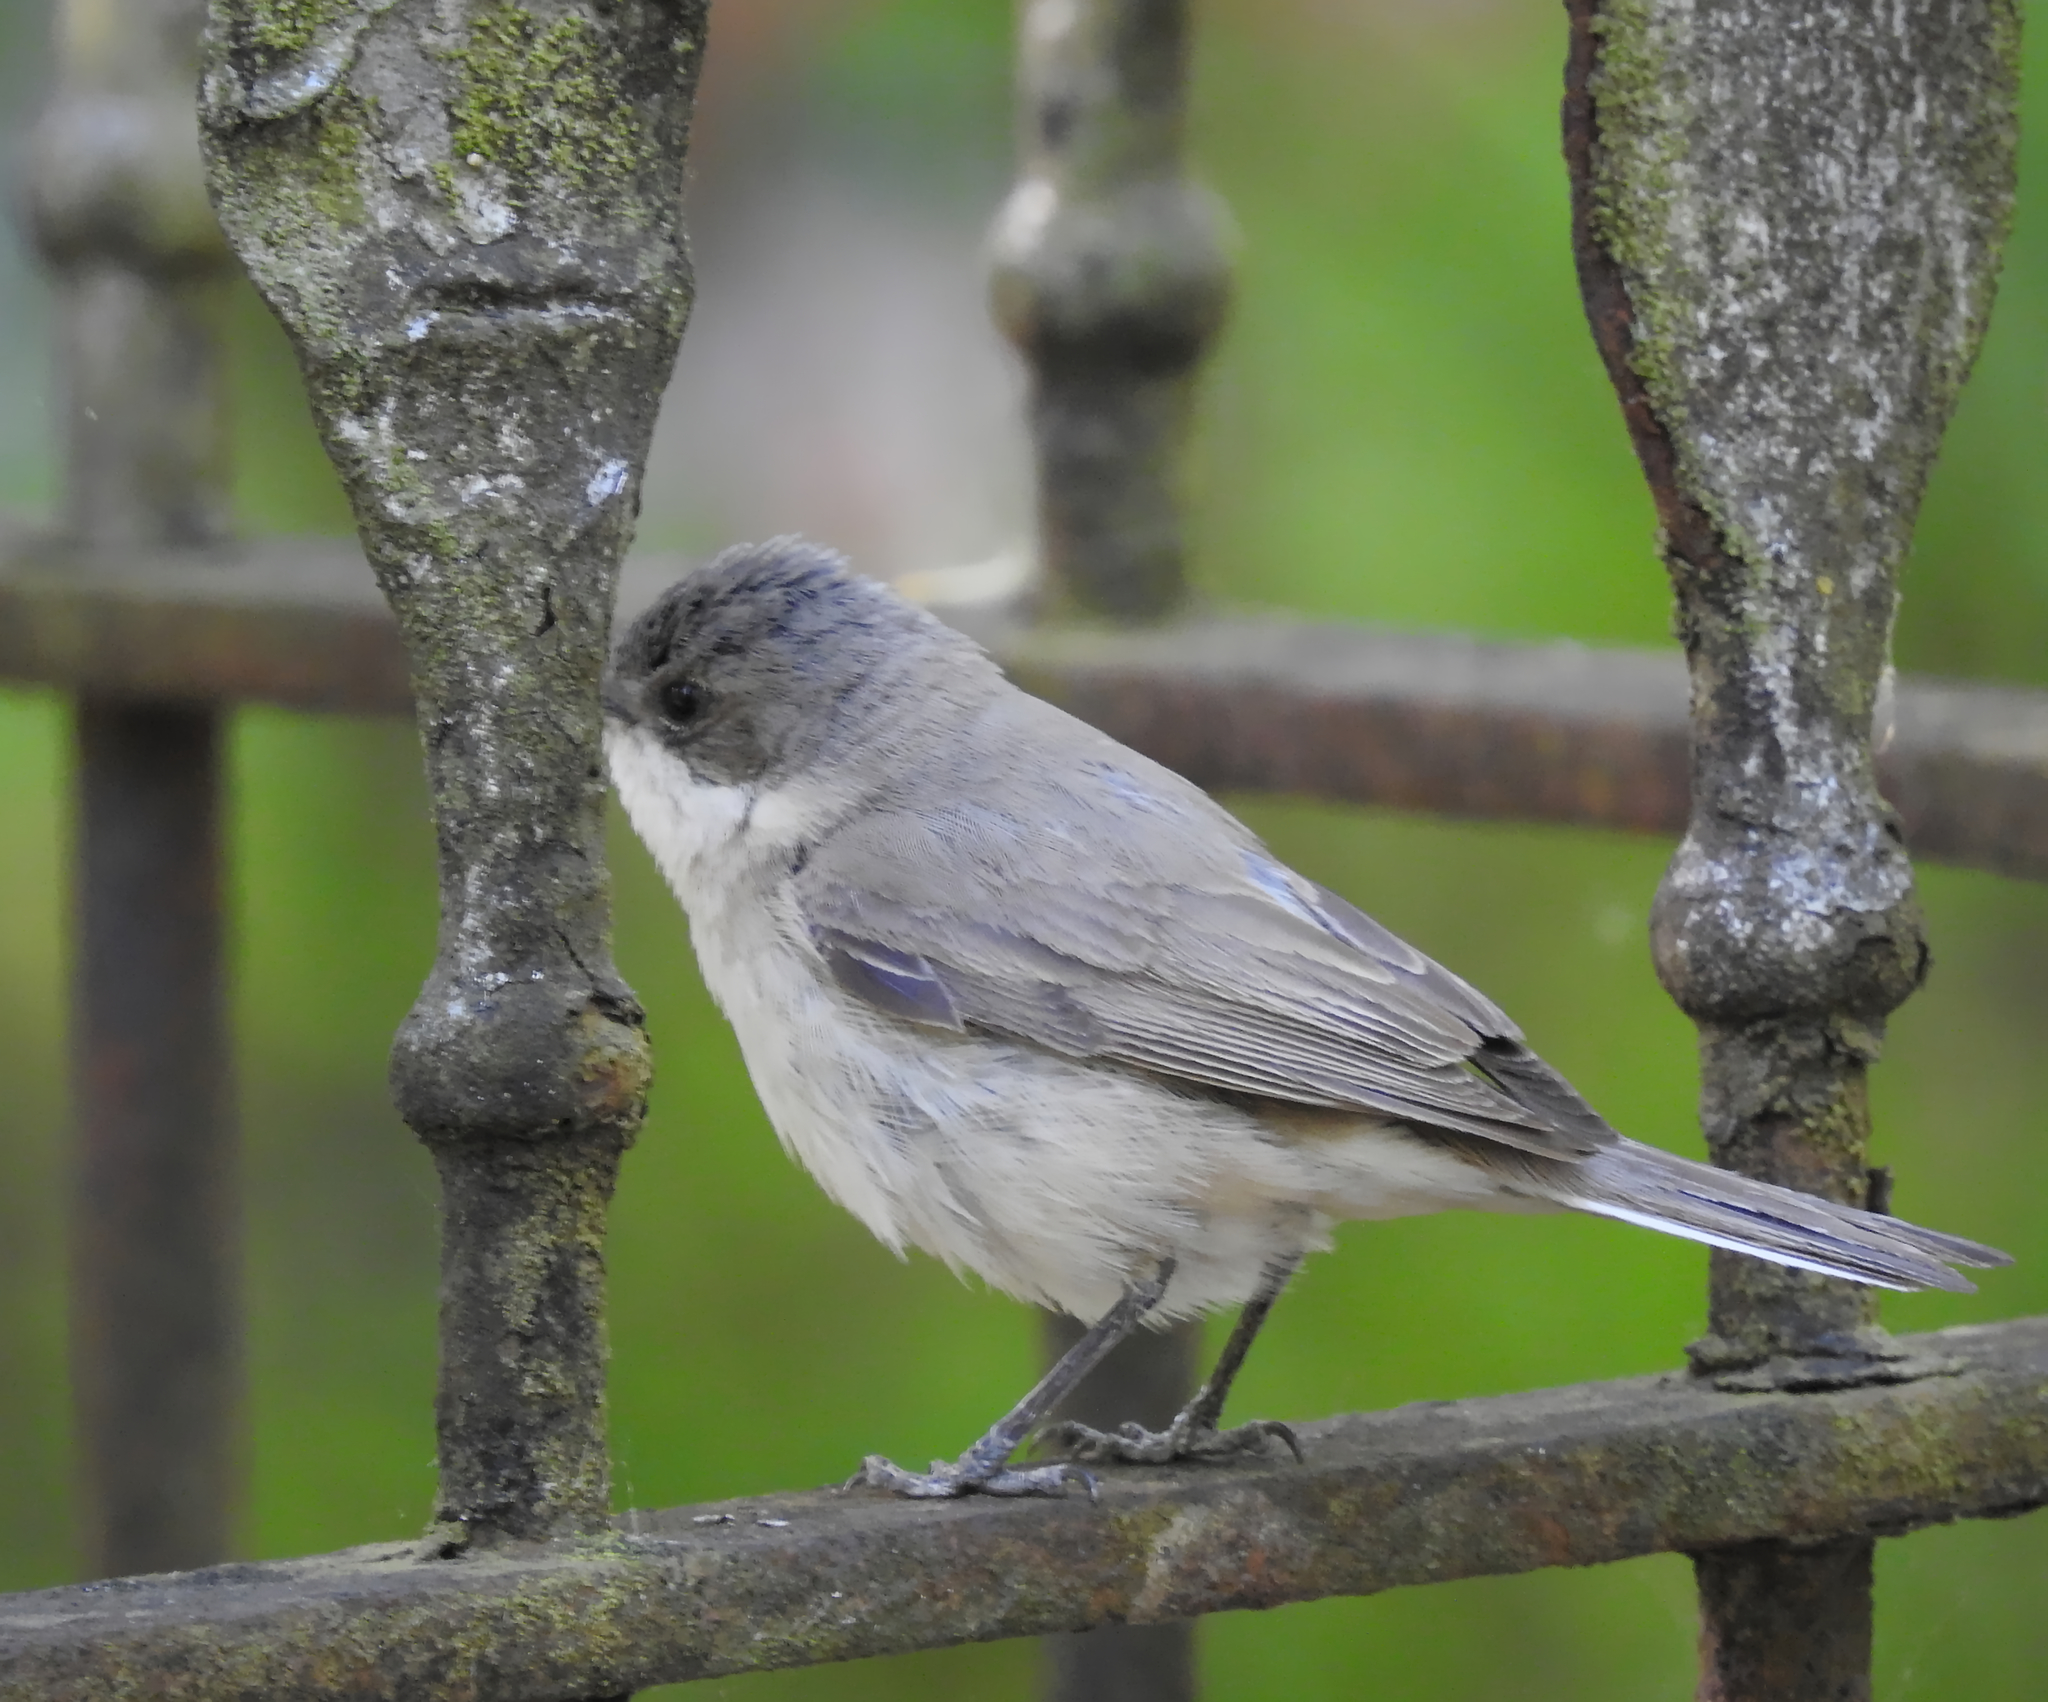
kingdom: Animalia
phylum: Chordata
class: Aves
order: Passeriformes
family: Sylviidae
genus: Sylvia
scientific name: Sylvia curruca
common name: Lesser whitethroat
